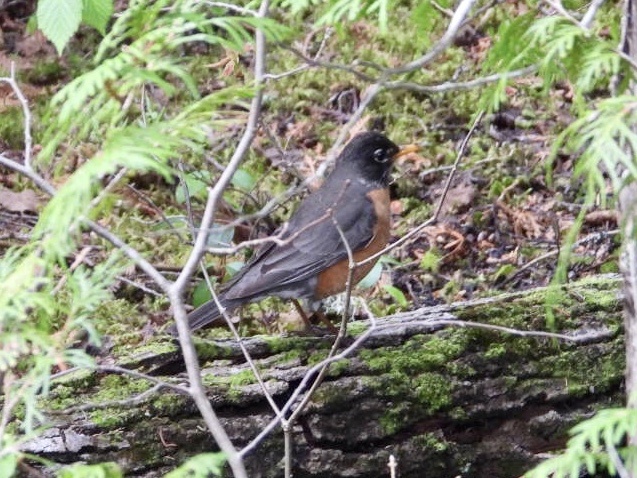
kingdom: Animalia
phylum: Chordata
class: Aves
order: Passeriformes
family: Turdidae
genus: Turdus
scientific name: Turdus migratorius
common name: American robin
